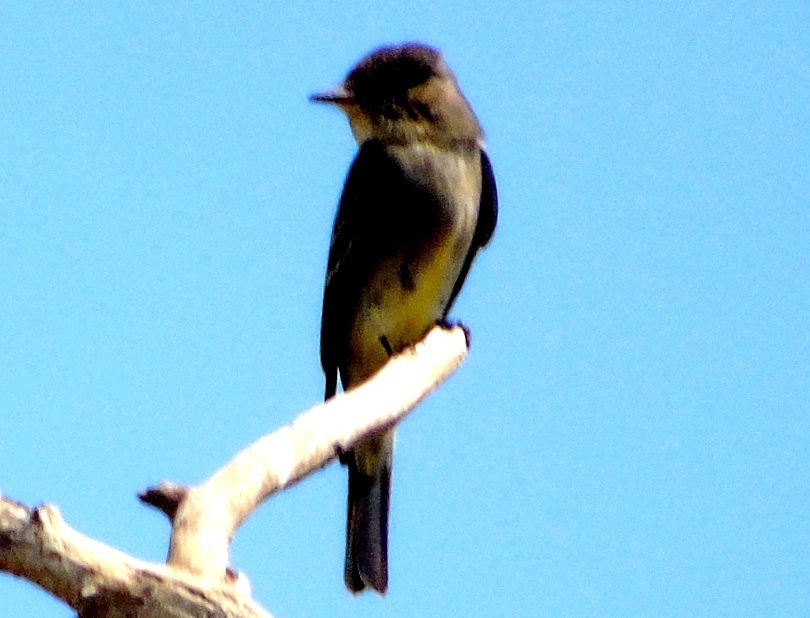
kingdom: Animalia
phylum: Chordata
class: Aves
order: Passeriformes
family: Tyrannidae
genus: Contopus
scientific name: Contopus sordidulus
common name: Western wood-pewee
